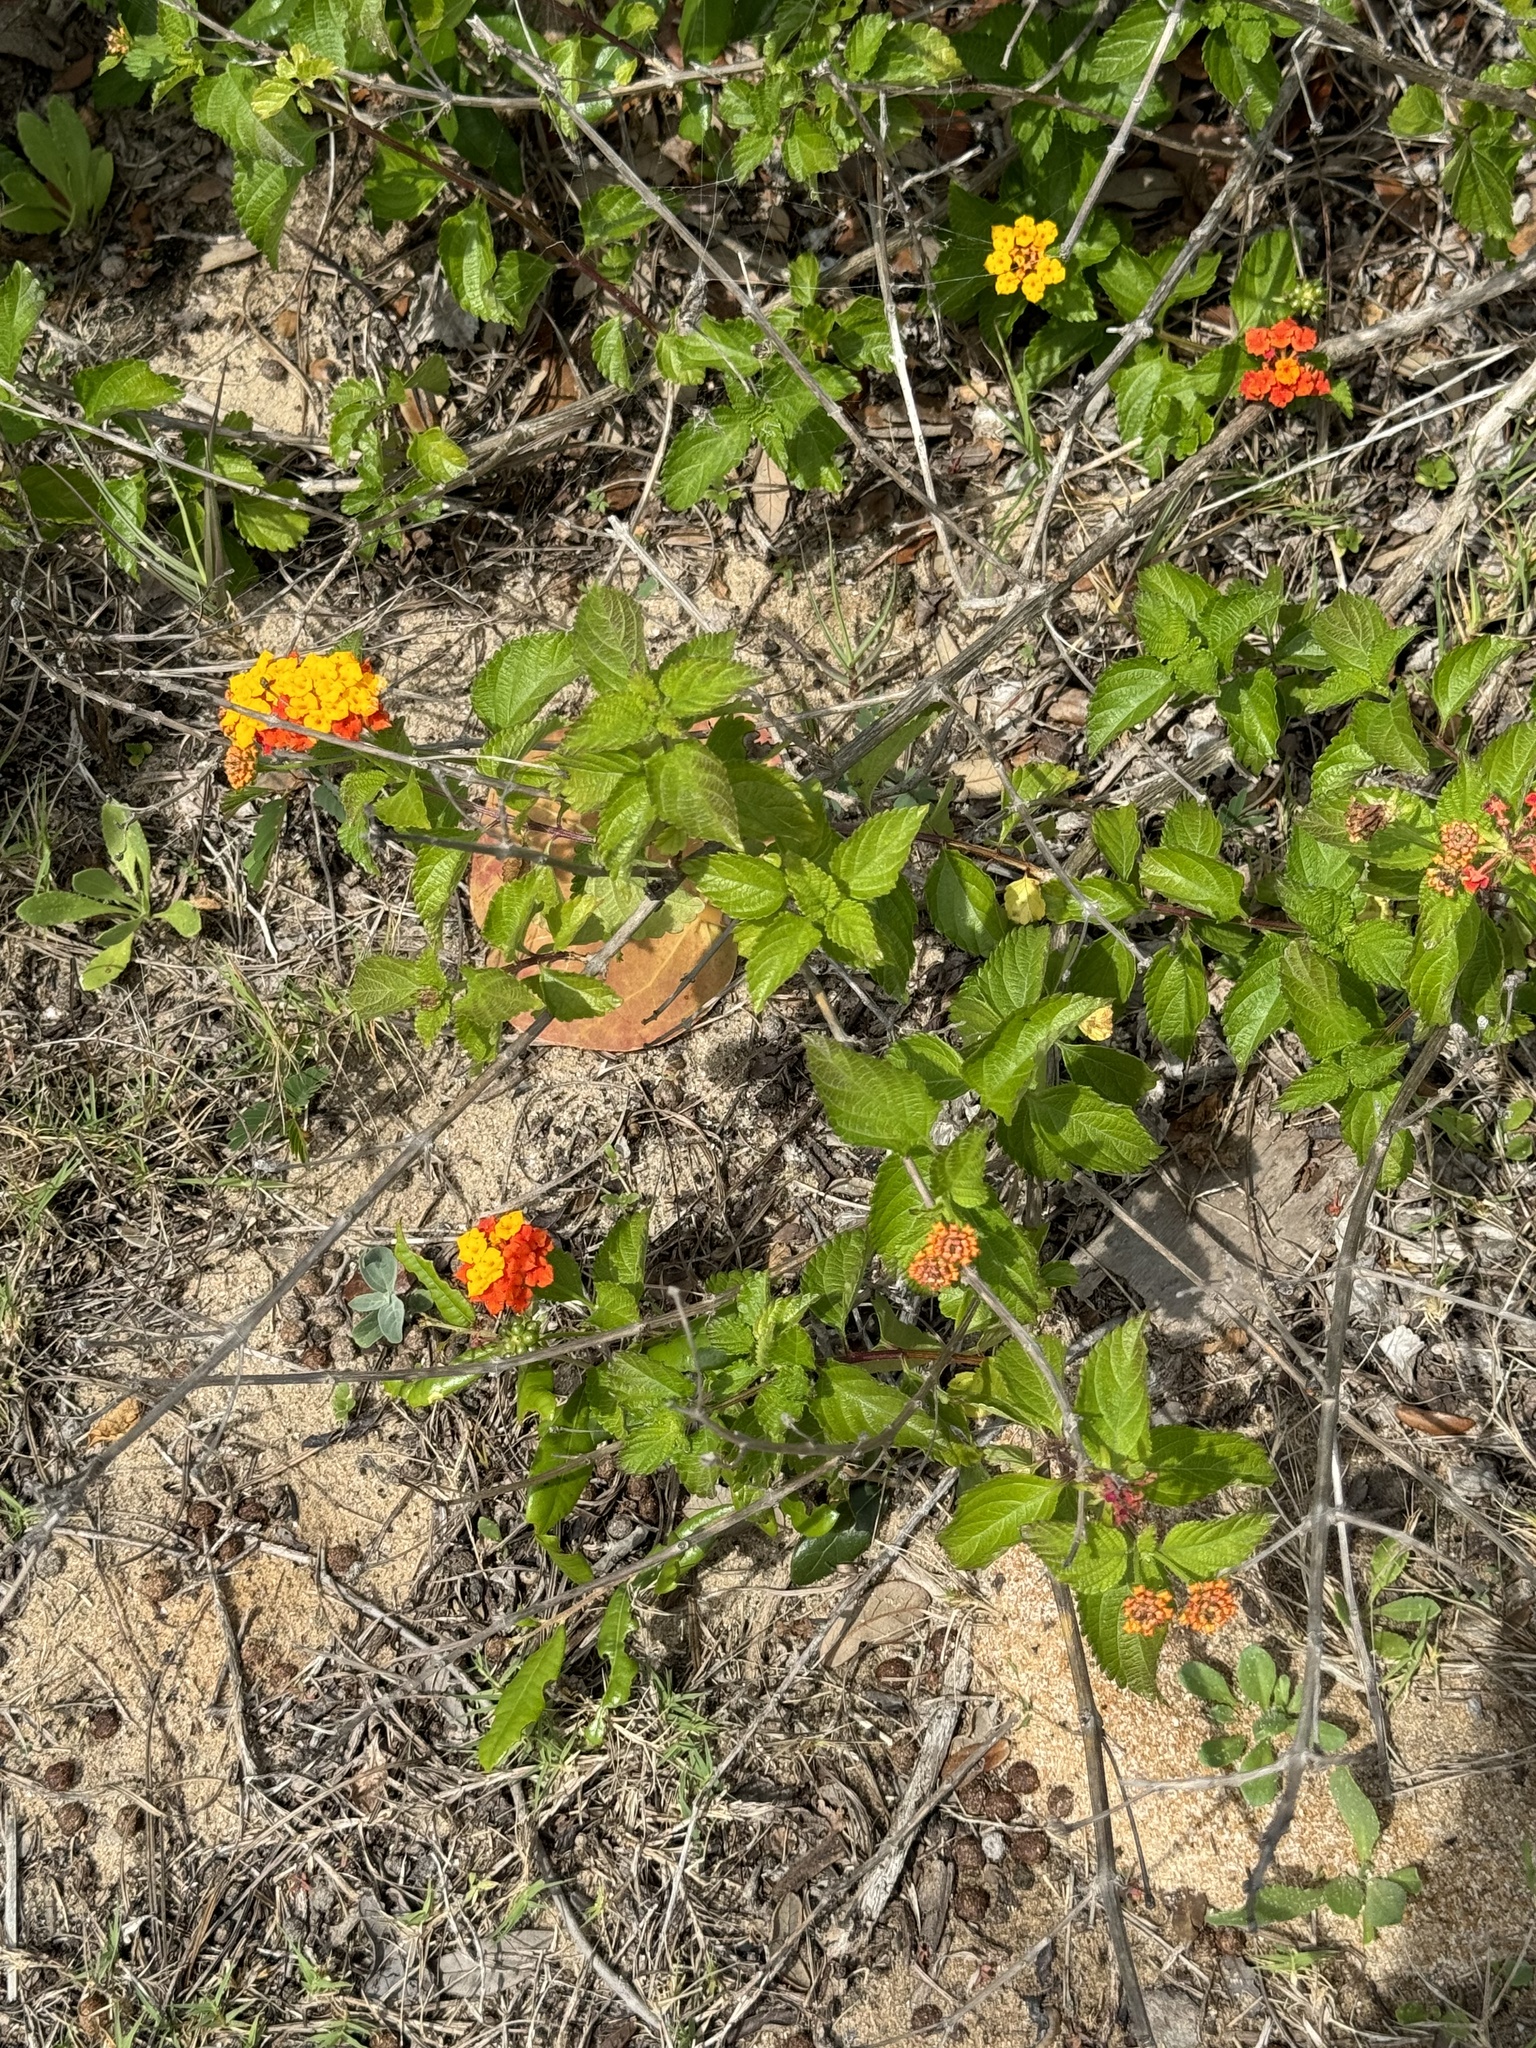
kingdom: Plantae
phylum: Tracheophyta
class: Magnoliopsida
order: Lamiales
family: Verbenaceae
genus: Lantana
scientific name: Lantana strigocamara
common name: Lantana
